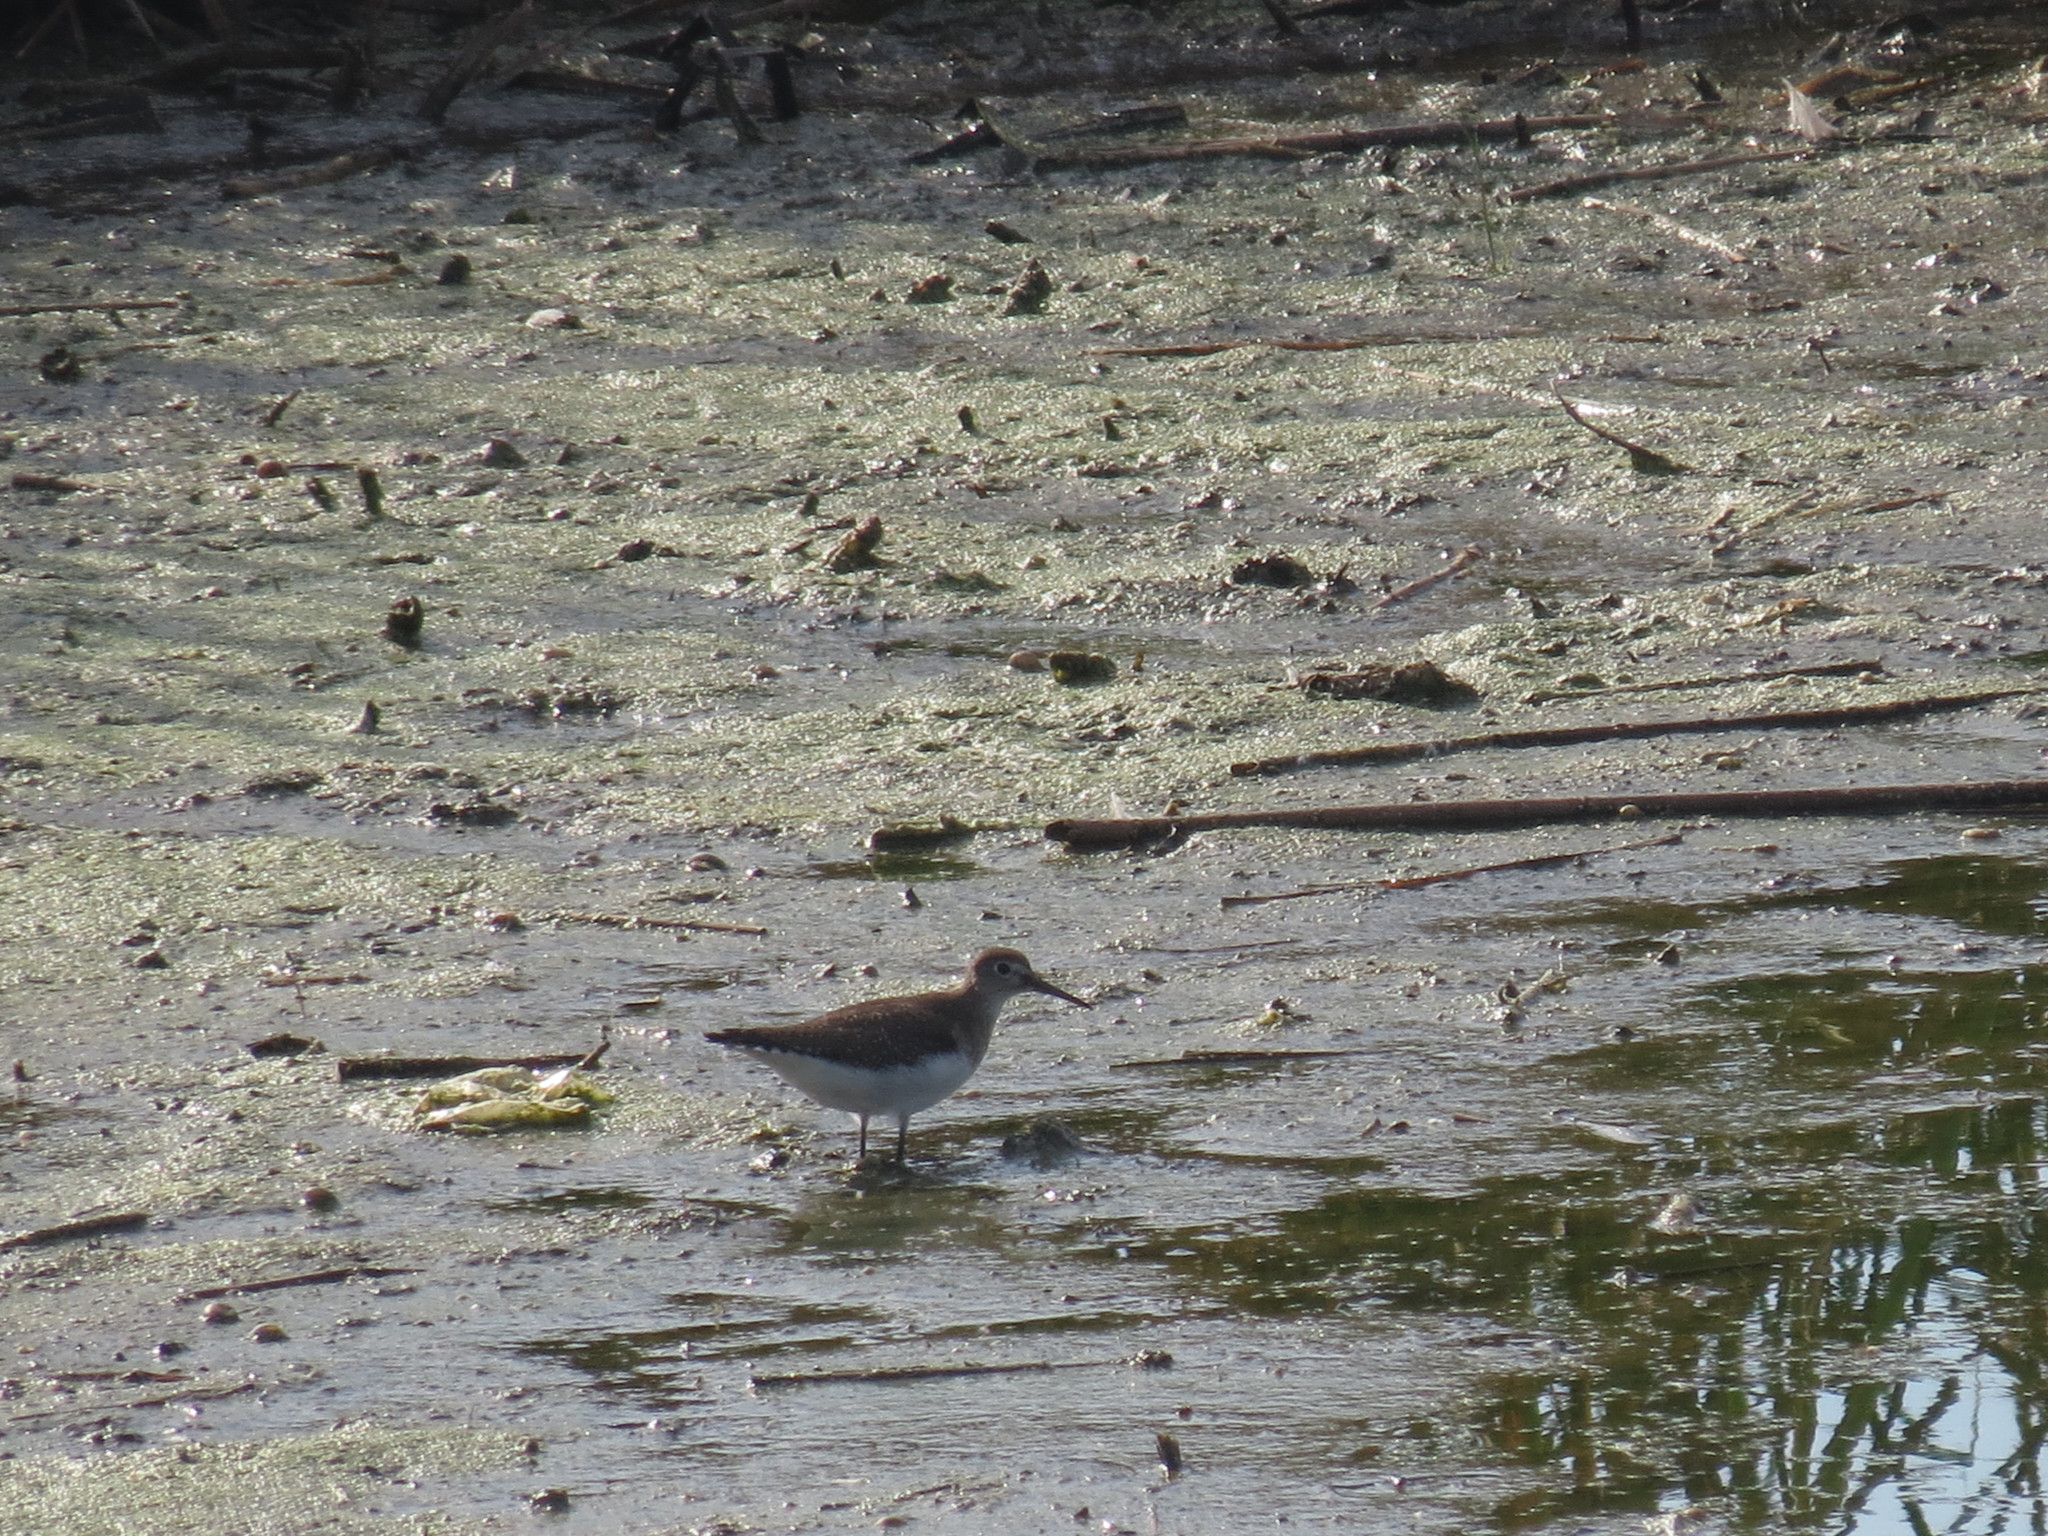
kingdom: Animalia
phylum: Chordata
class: Aves
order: Charadriiformes
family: Scolopacidae
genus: Tringa
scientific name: Tringa solitaria
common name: Solitary sandpiper
